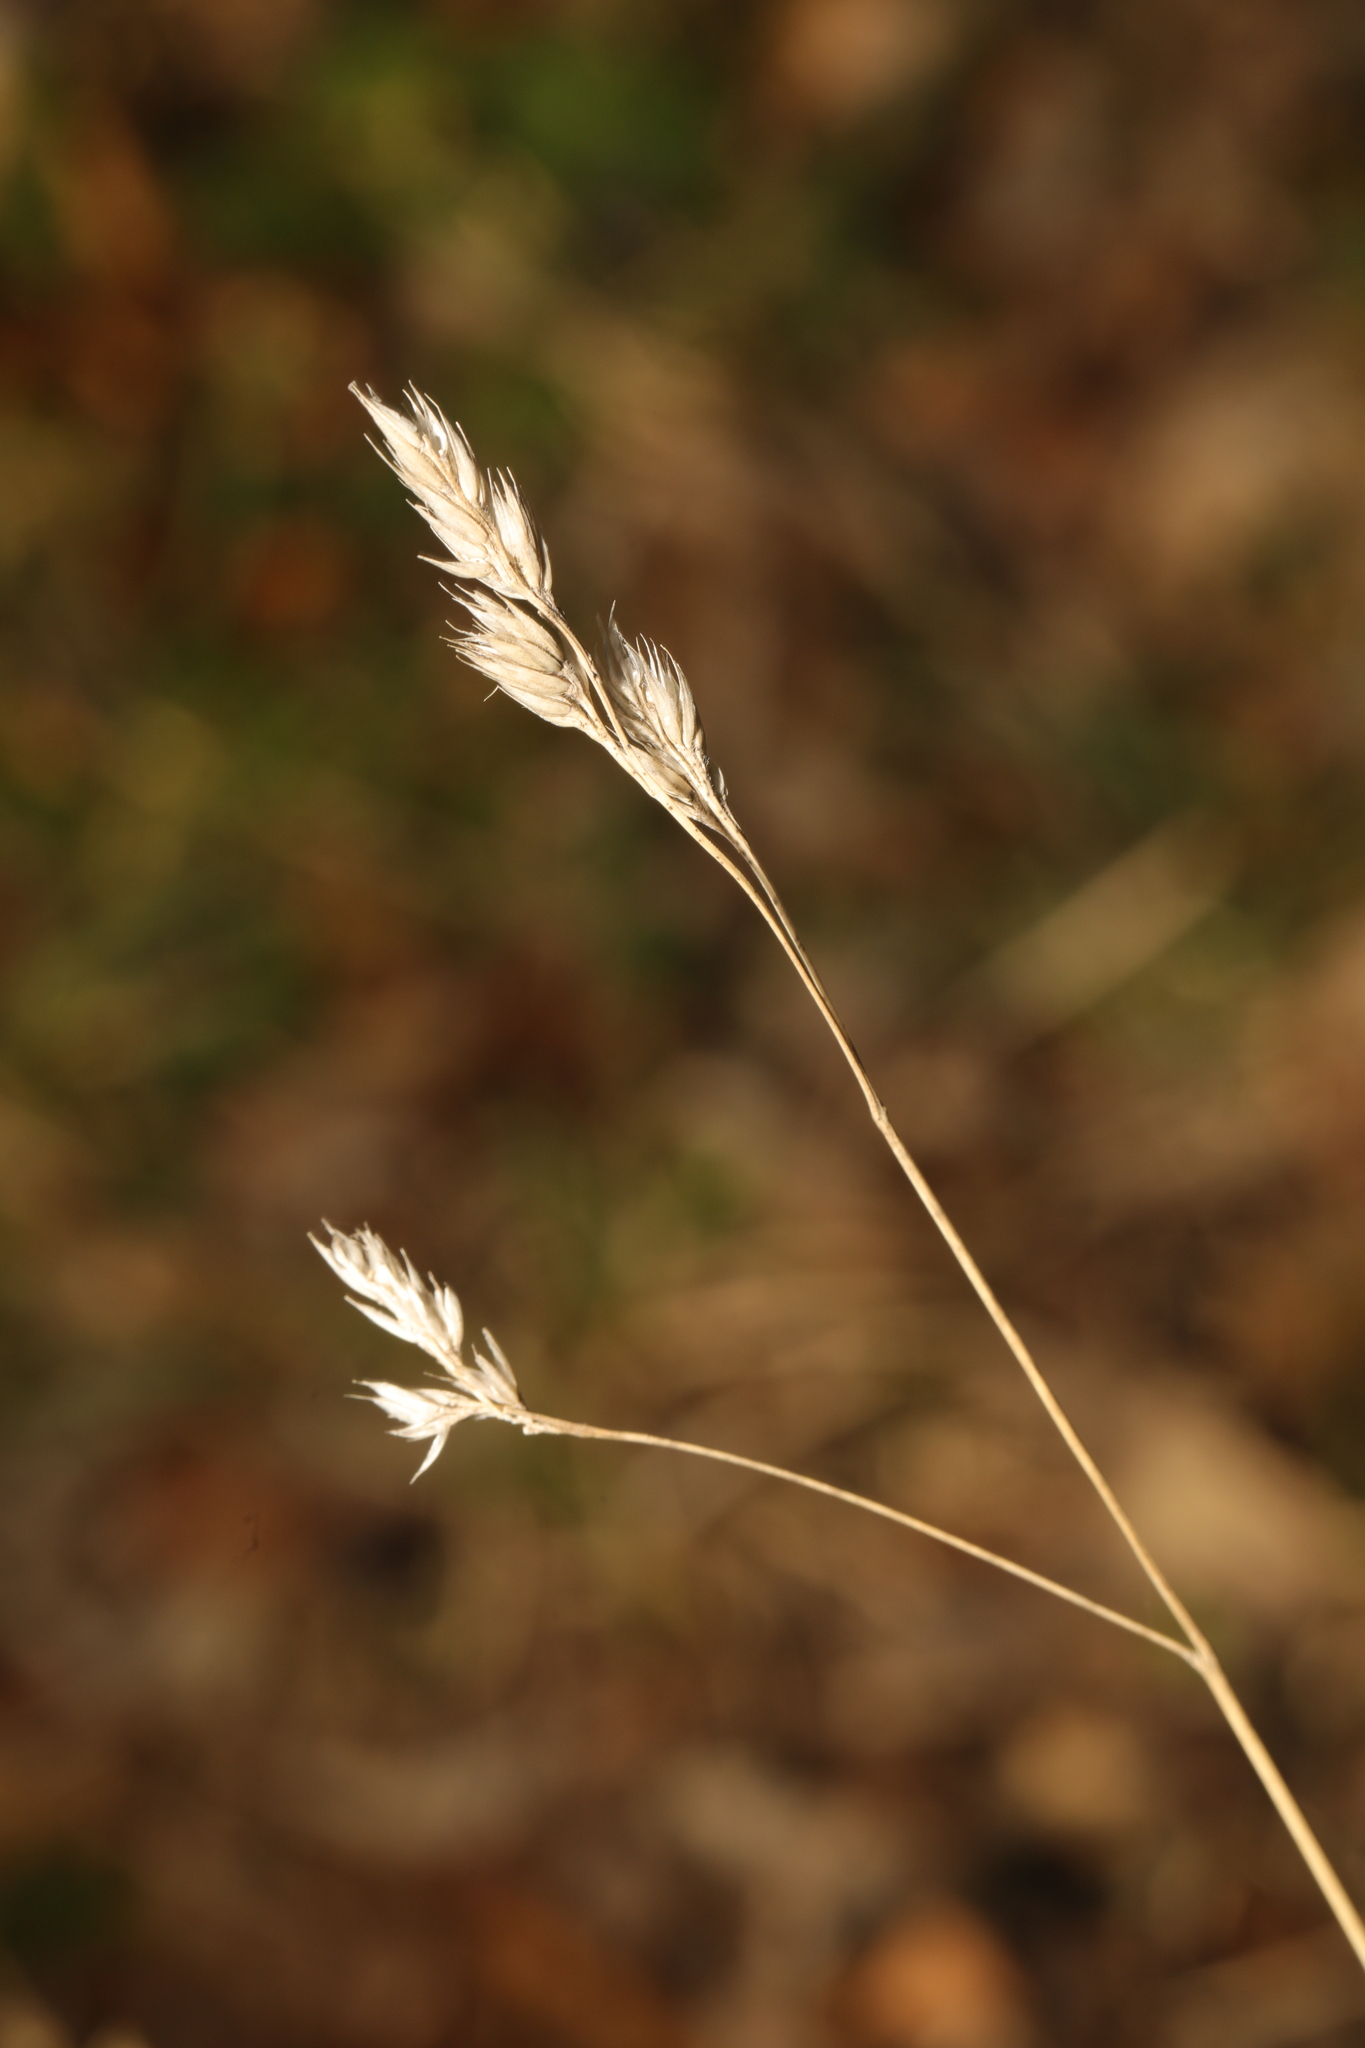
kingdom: Plantae
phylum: Tracheophyta
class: Liliopsida
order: Poales
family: Poaceae
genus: Dactylis
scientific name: Dactylis glomerata
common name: Orchardgrass
